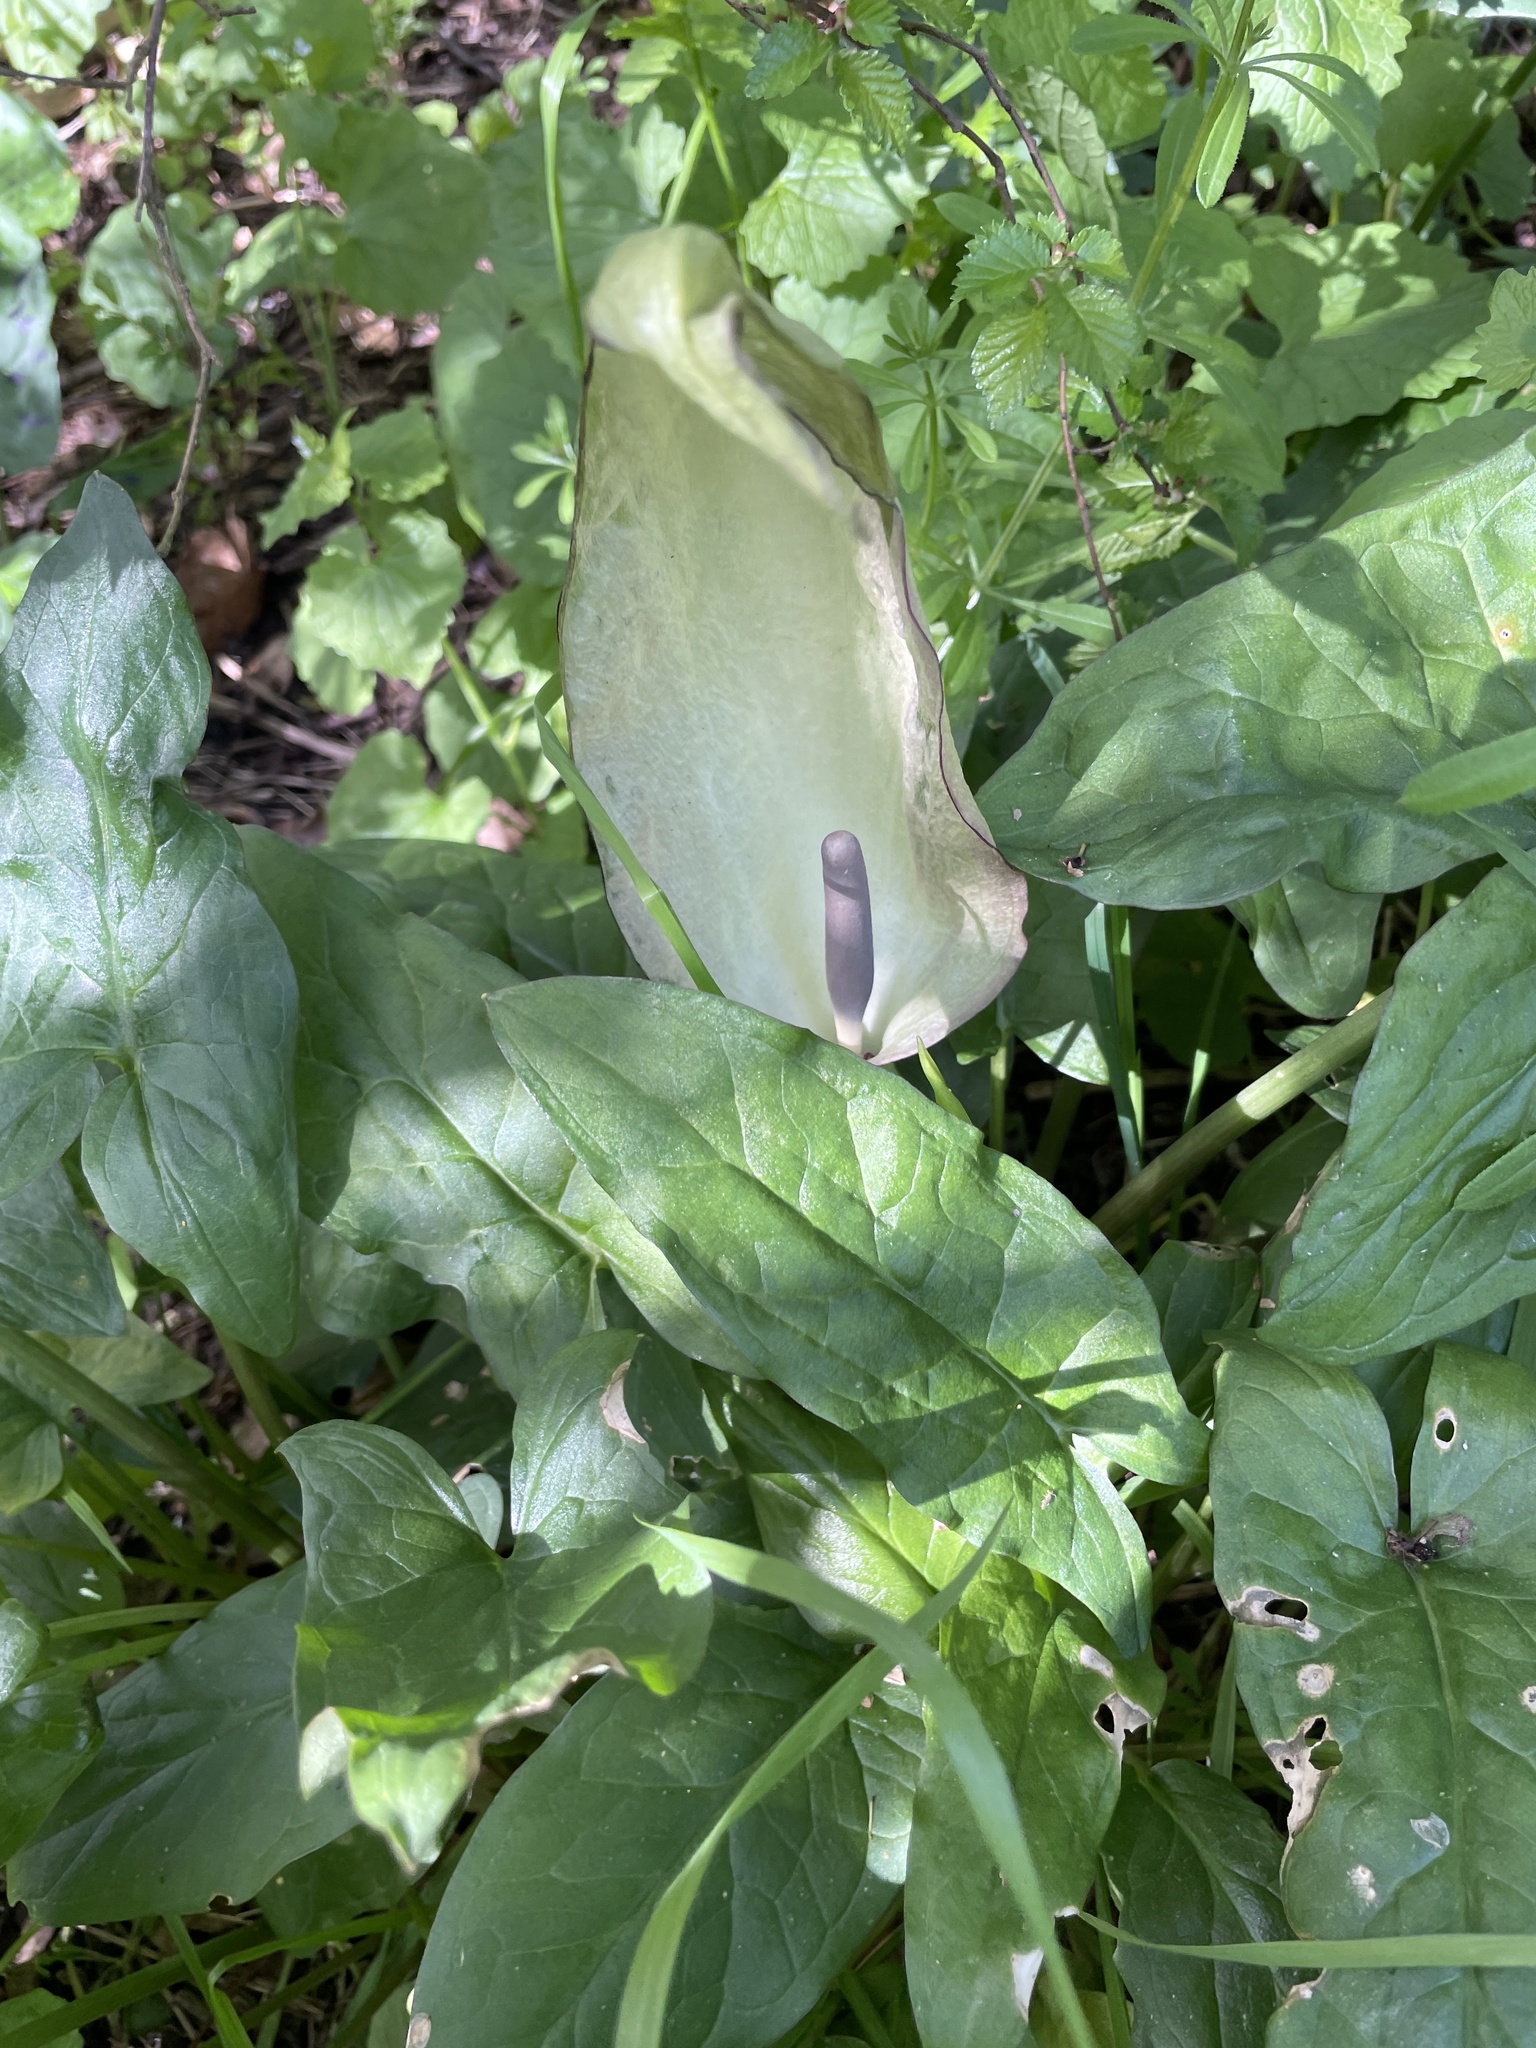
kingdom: Plantae
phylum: Tracheophyta
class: Liliopsida
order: Alismatales
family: Araceae
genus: Arum
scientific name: Arum maculatum
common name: Lords-and-ladies
